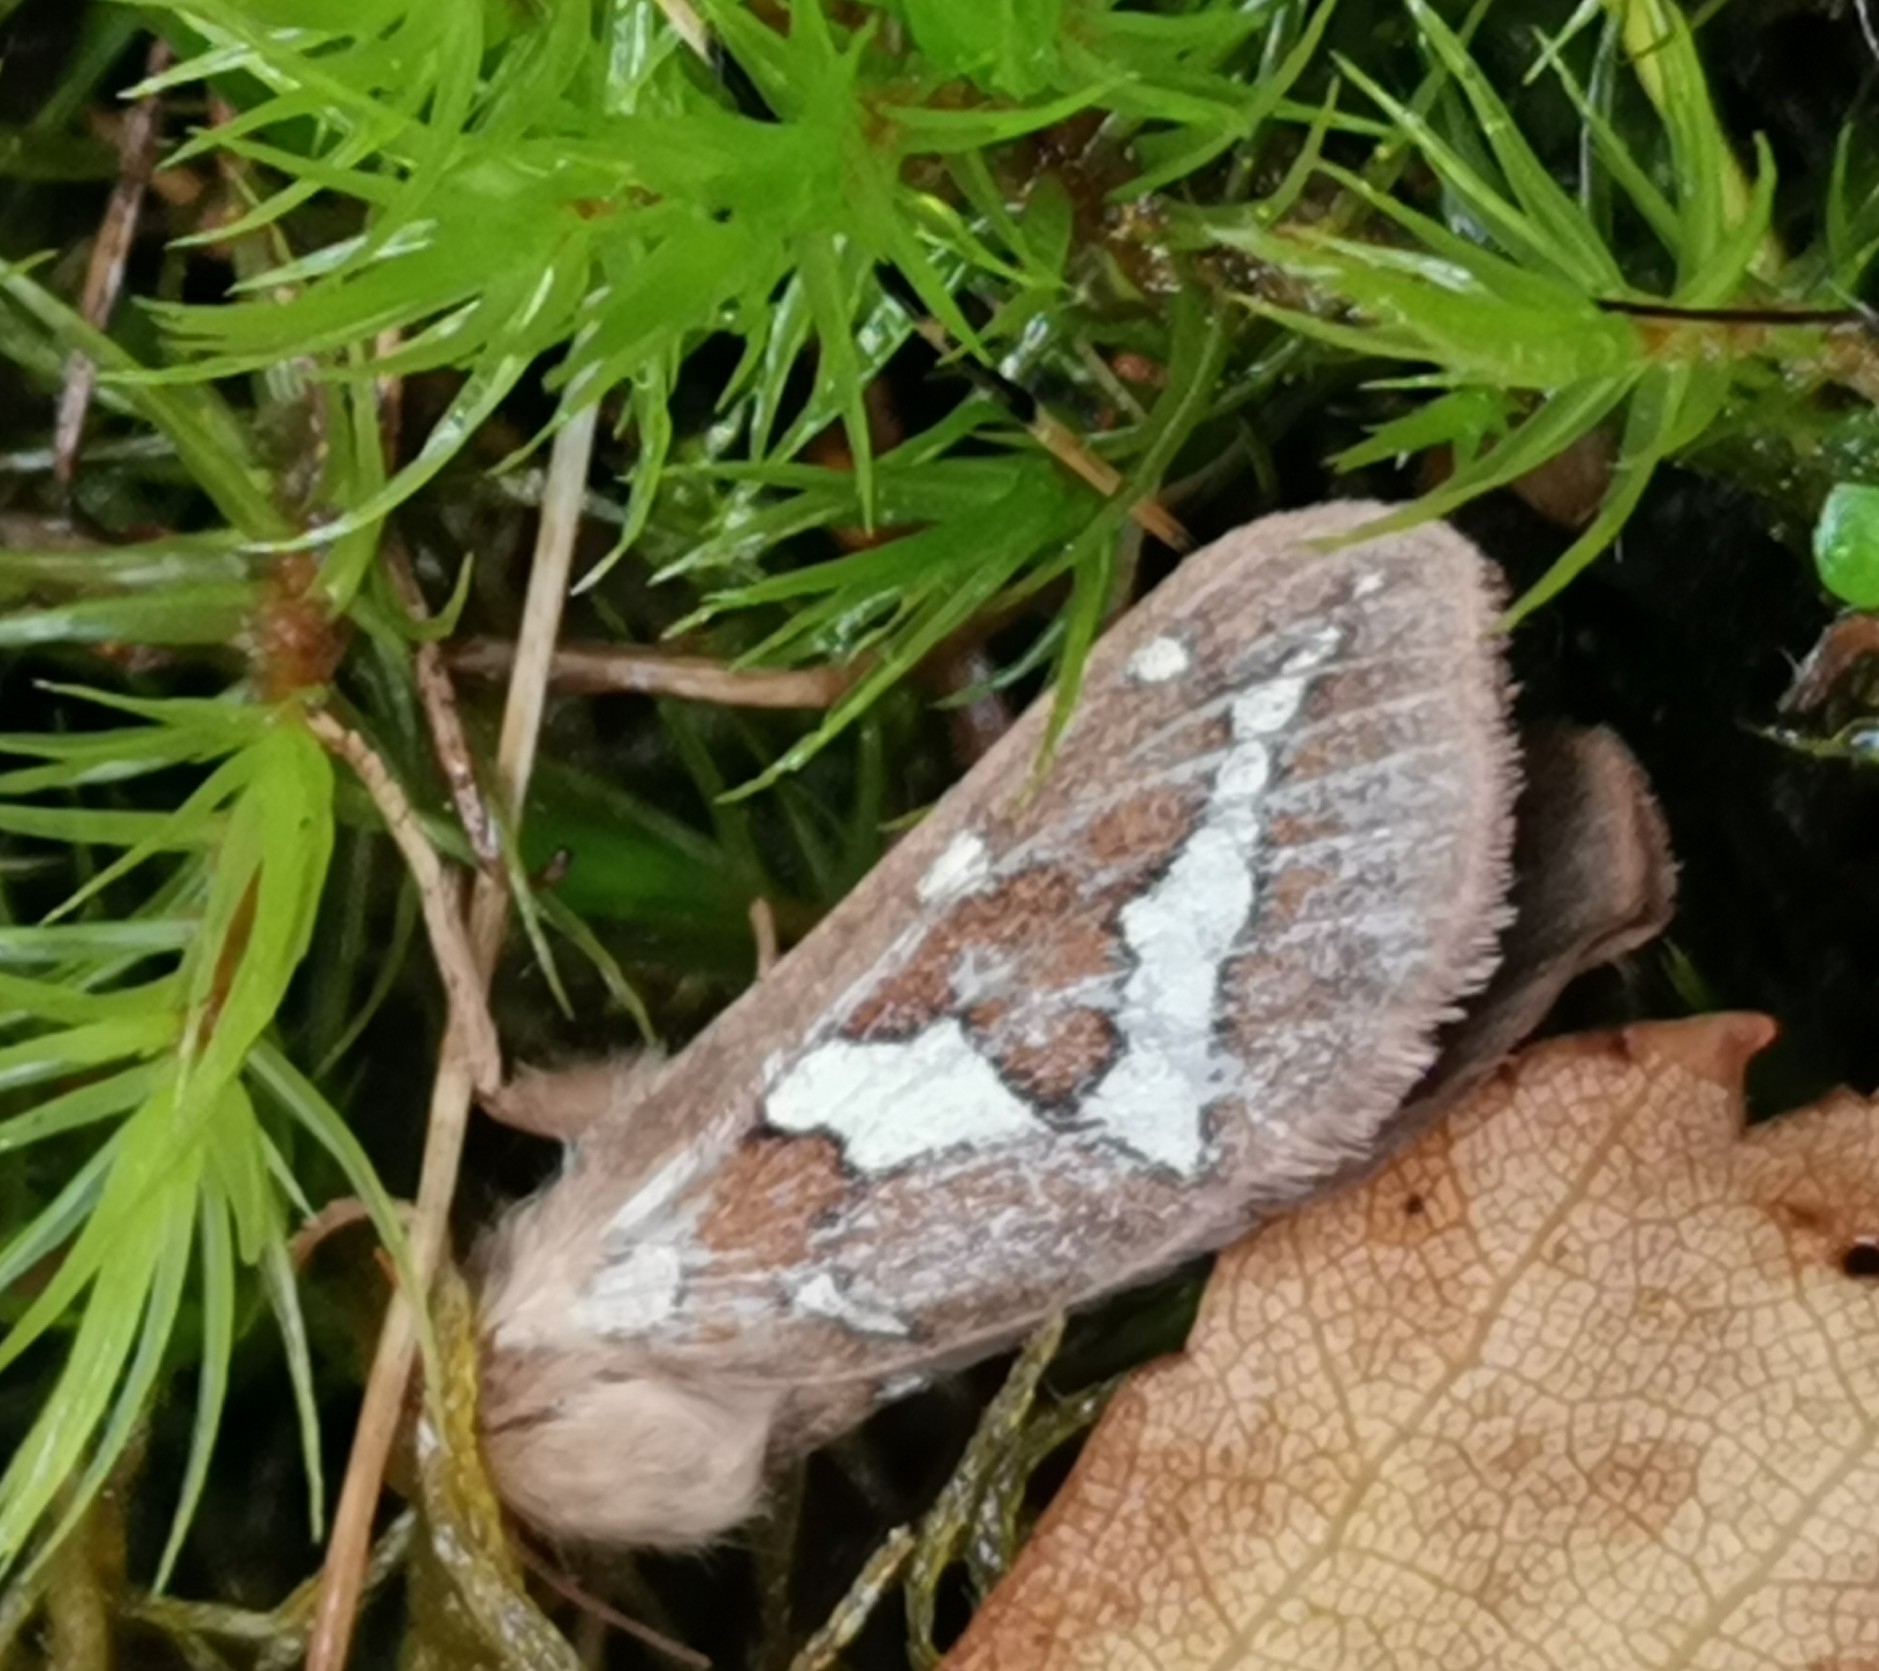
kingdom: Animalia
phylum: Arthropoda
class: Insecta
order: Lepidoptera
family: Hepialidae
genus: Gazoryctra
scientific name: Gazoryctra ganna
